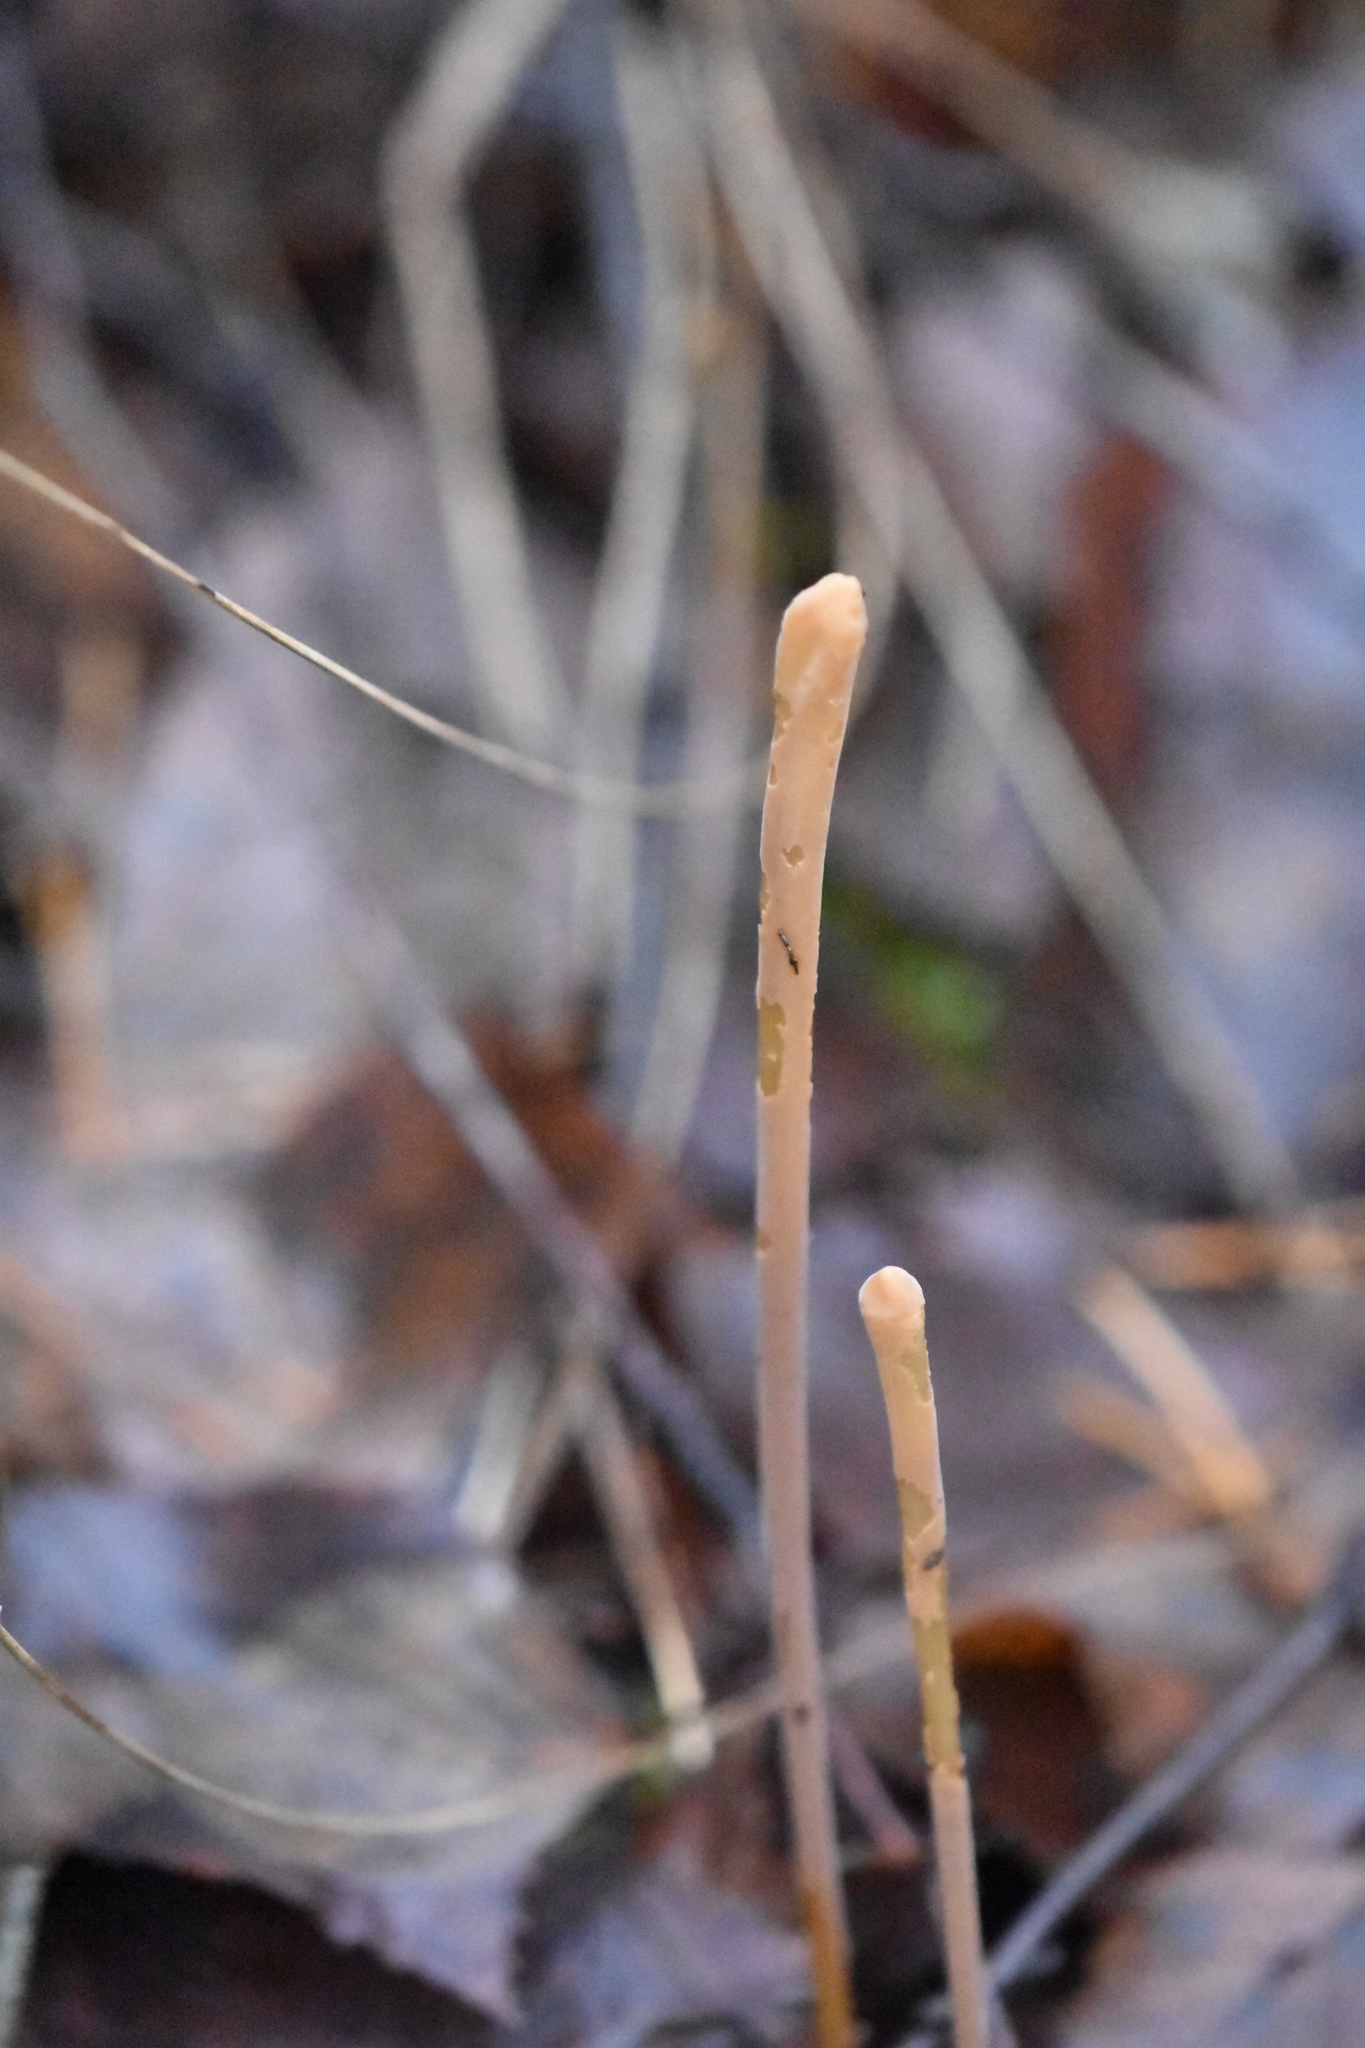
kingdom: Fungi
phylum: Basidiomycota
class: Agaricomycetes
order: Agaricales
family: Typhulaceae
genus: Typhula
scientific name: Typhula fistulosa
